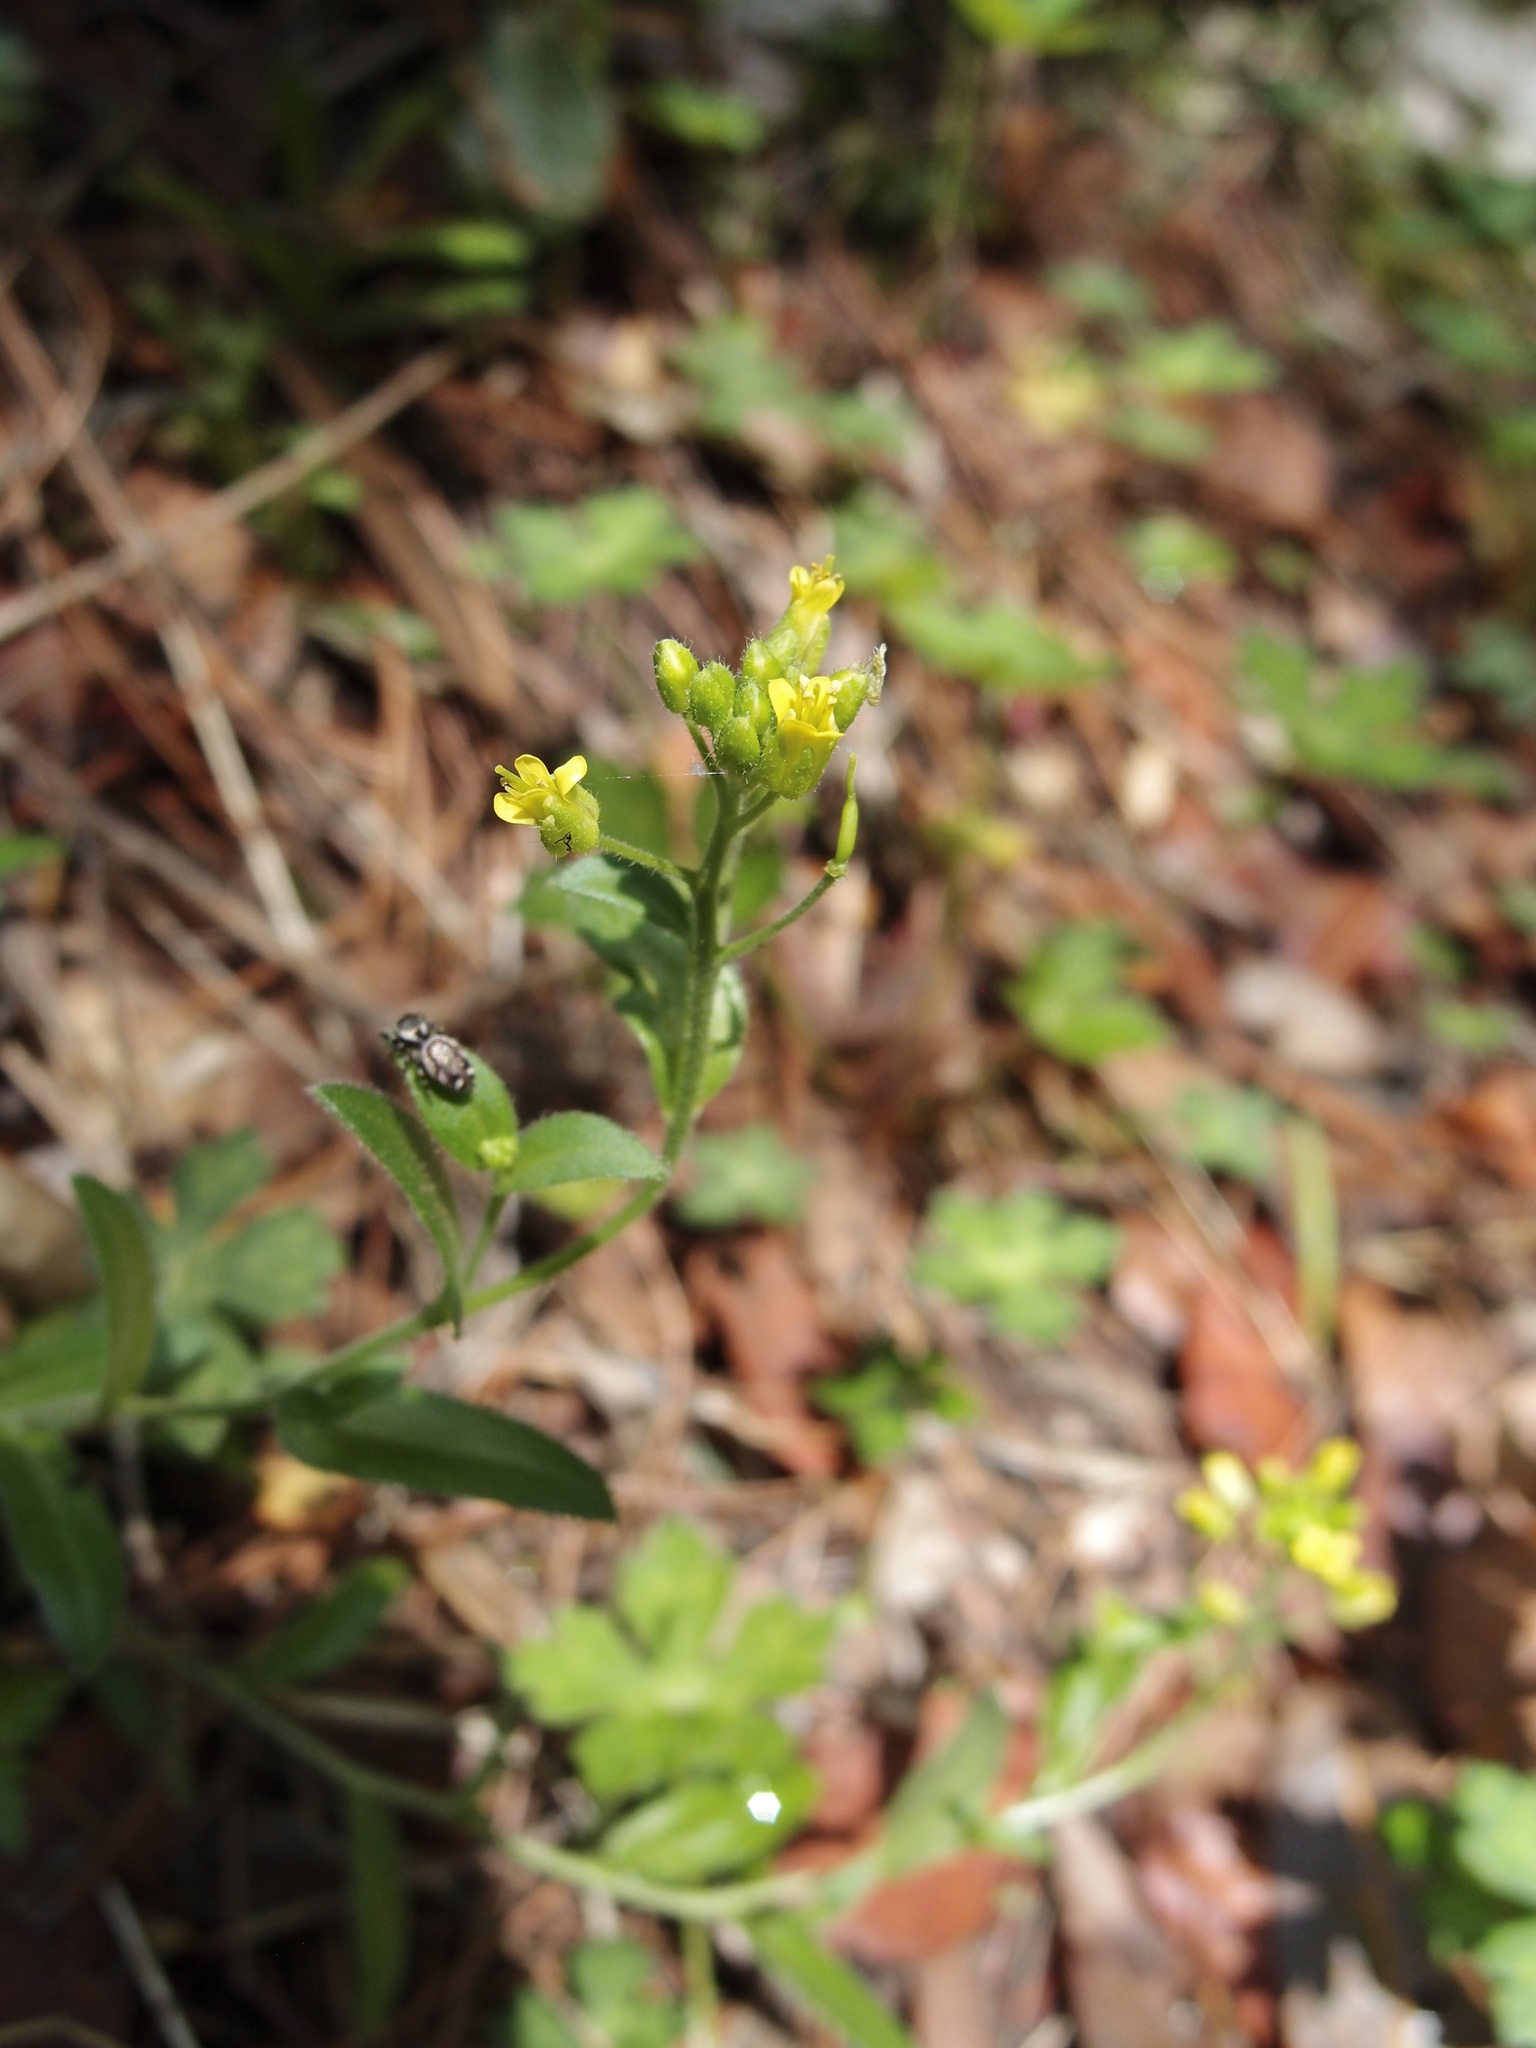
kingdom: Plantae
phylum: Tracheophyta
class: Magnoliopsida
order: Brassicales
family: Brassicaceae
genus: Draba
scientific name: Draba petrophila
